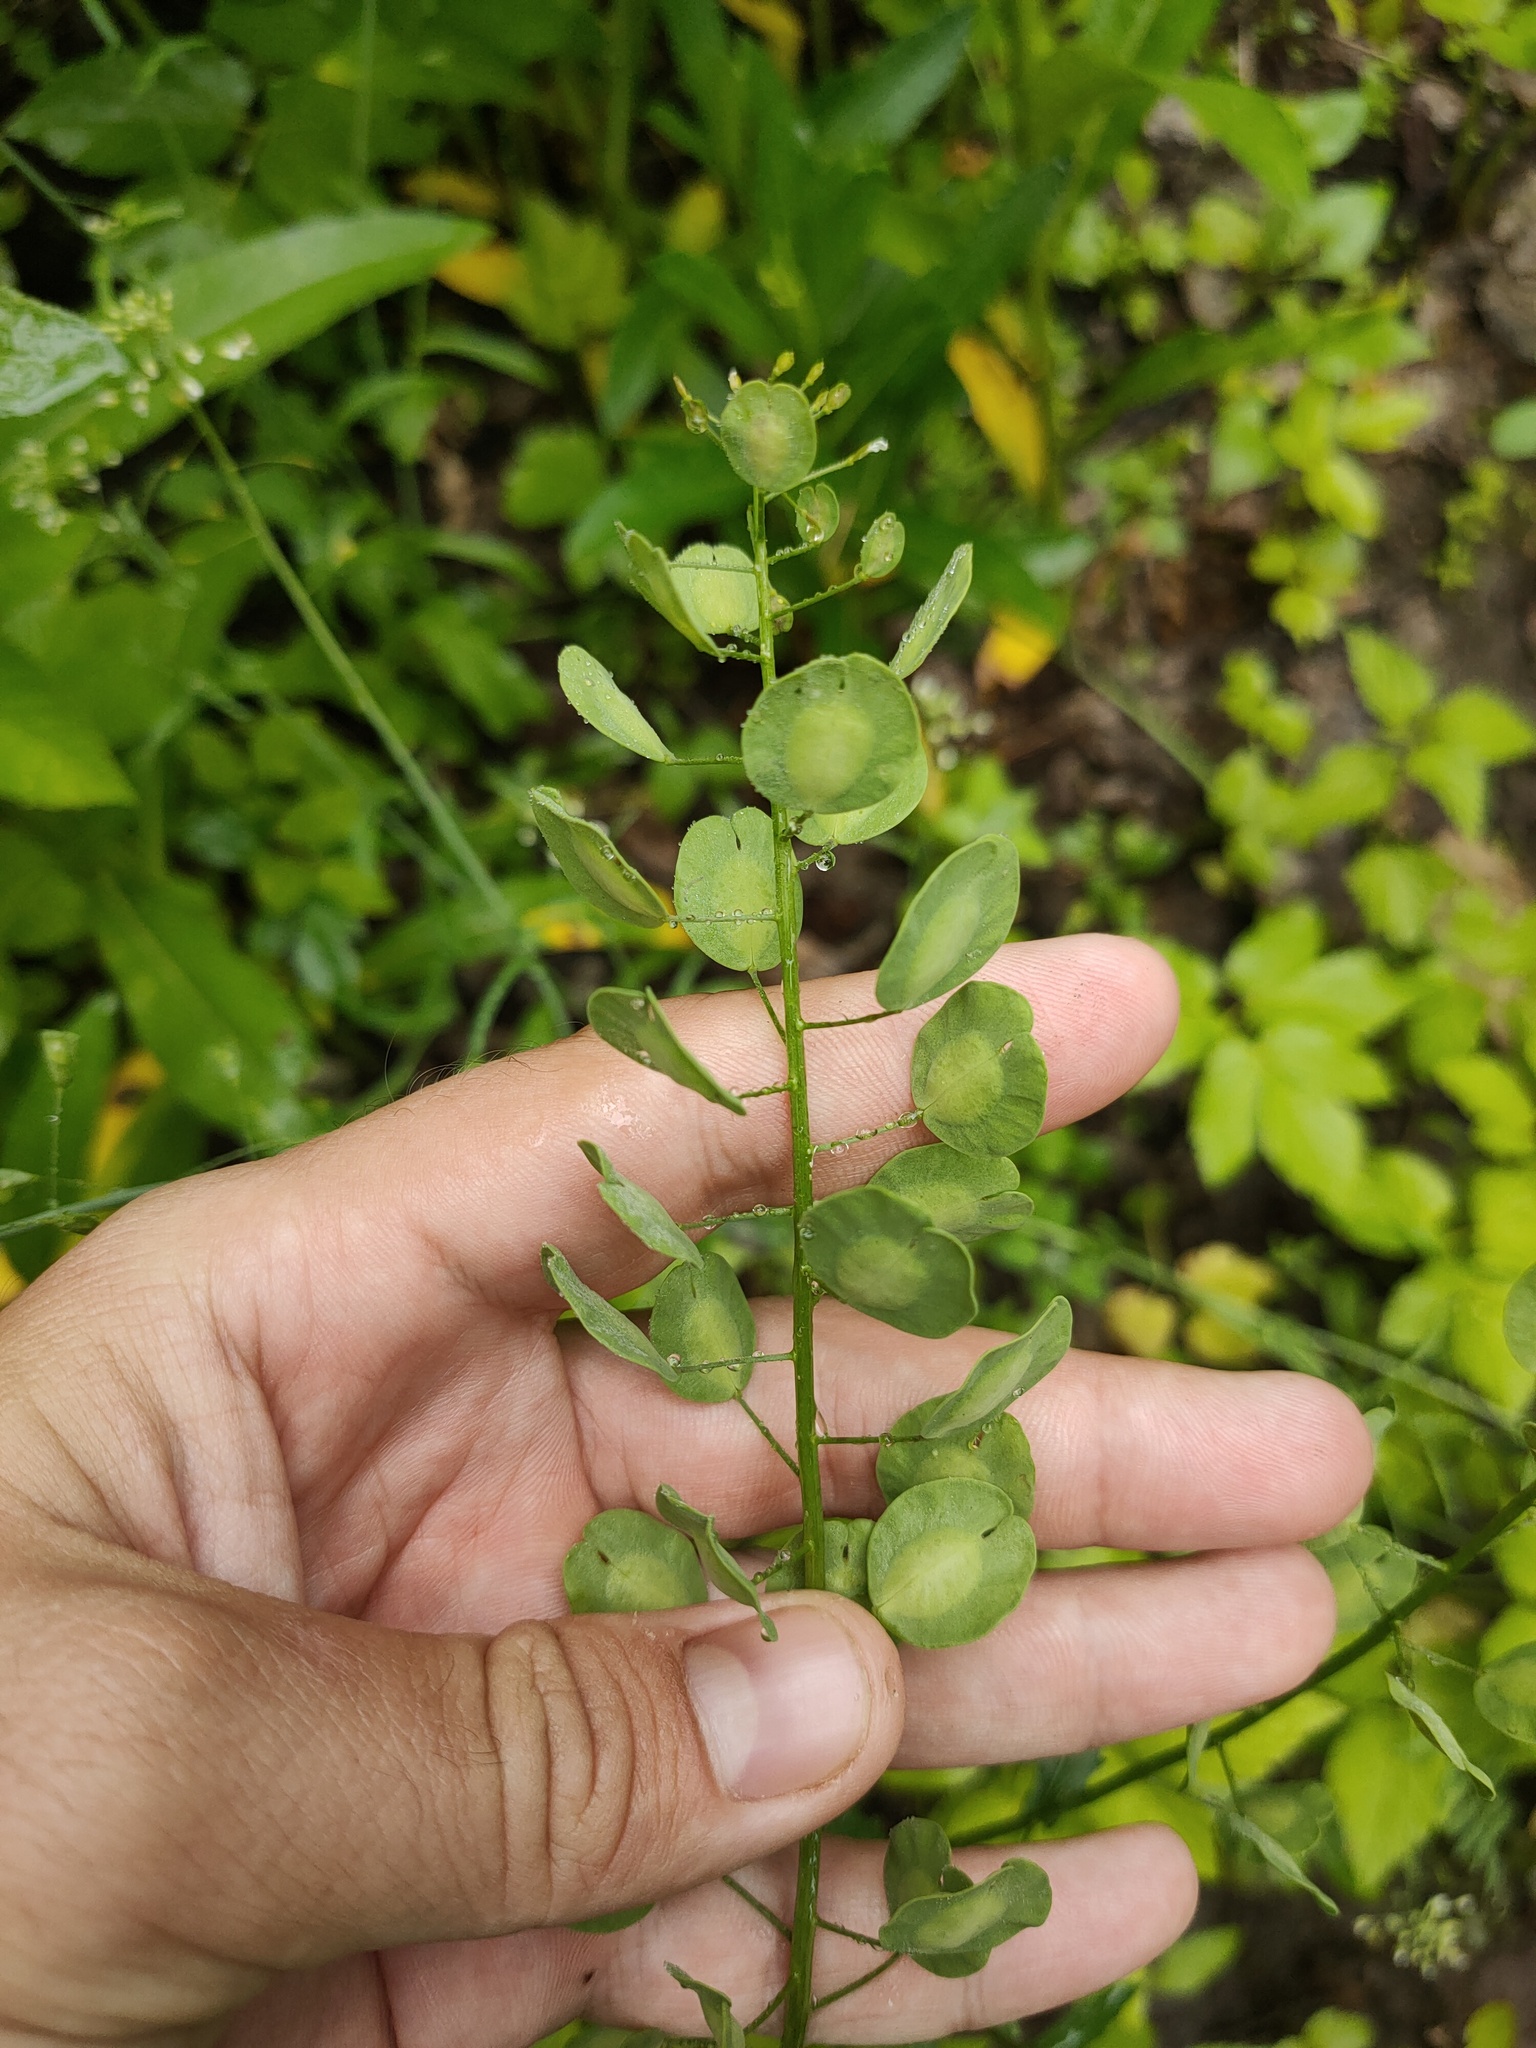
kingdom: Plantae
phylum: Tracheophyta
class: Magnoliopsida
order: Brassicales
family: Brassicaceae
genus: Thlaspi
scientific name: Thlaspi arvense
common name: Field pennycress
